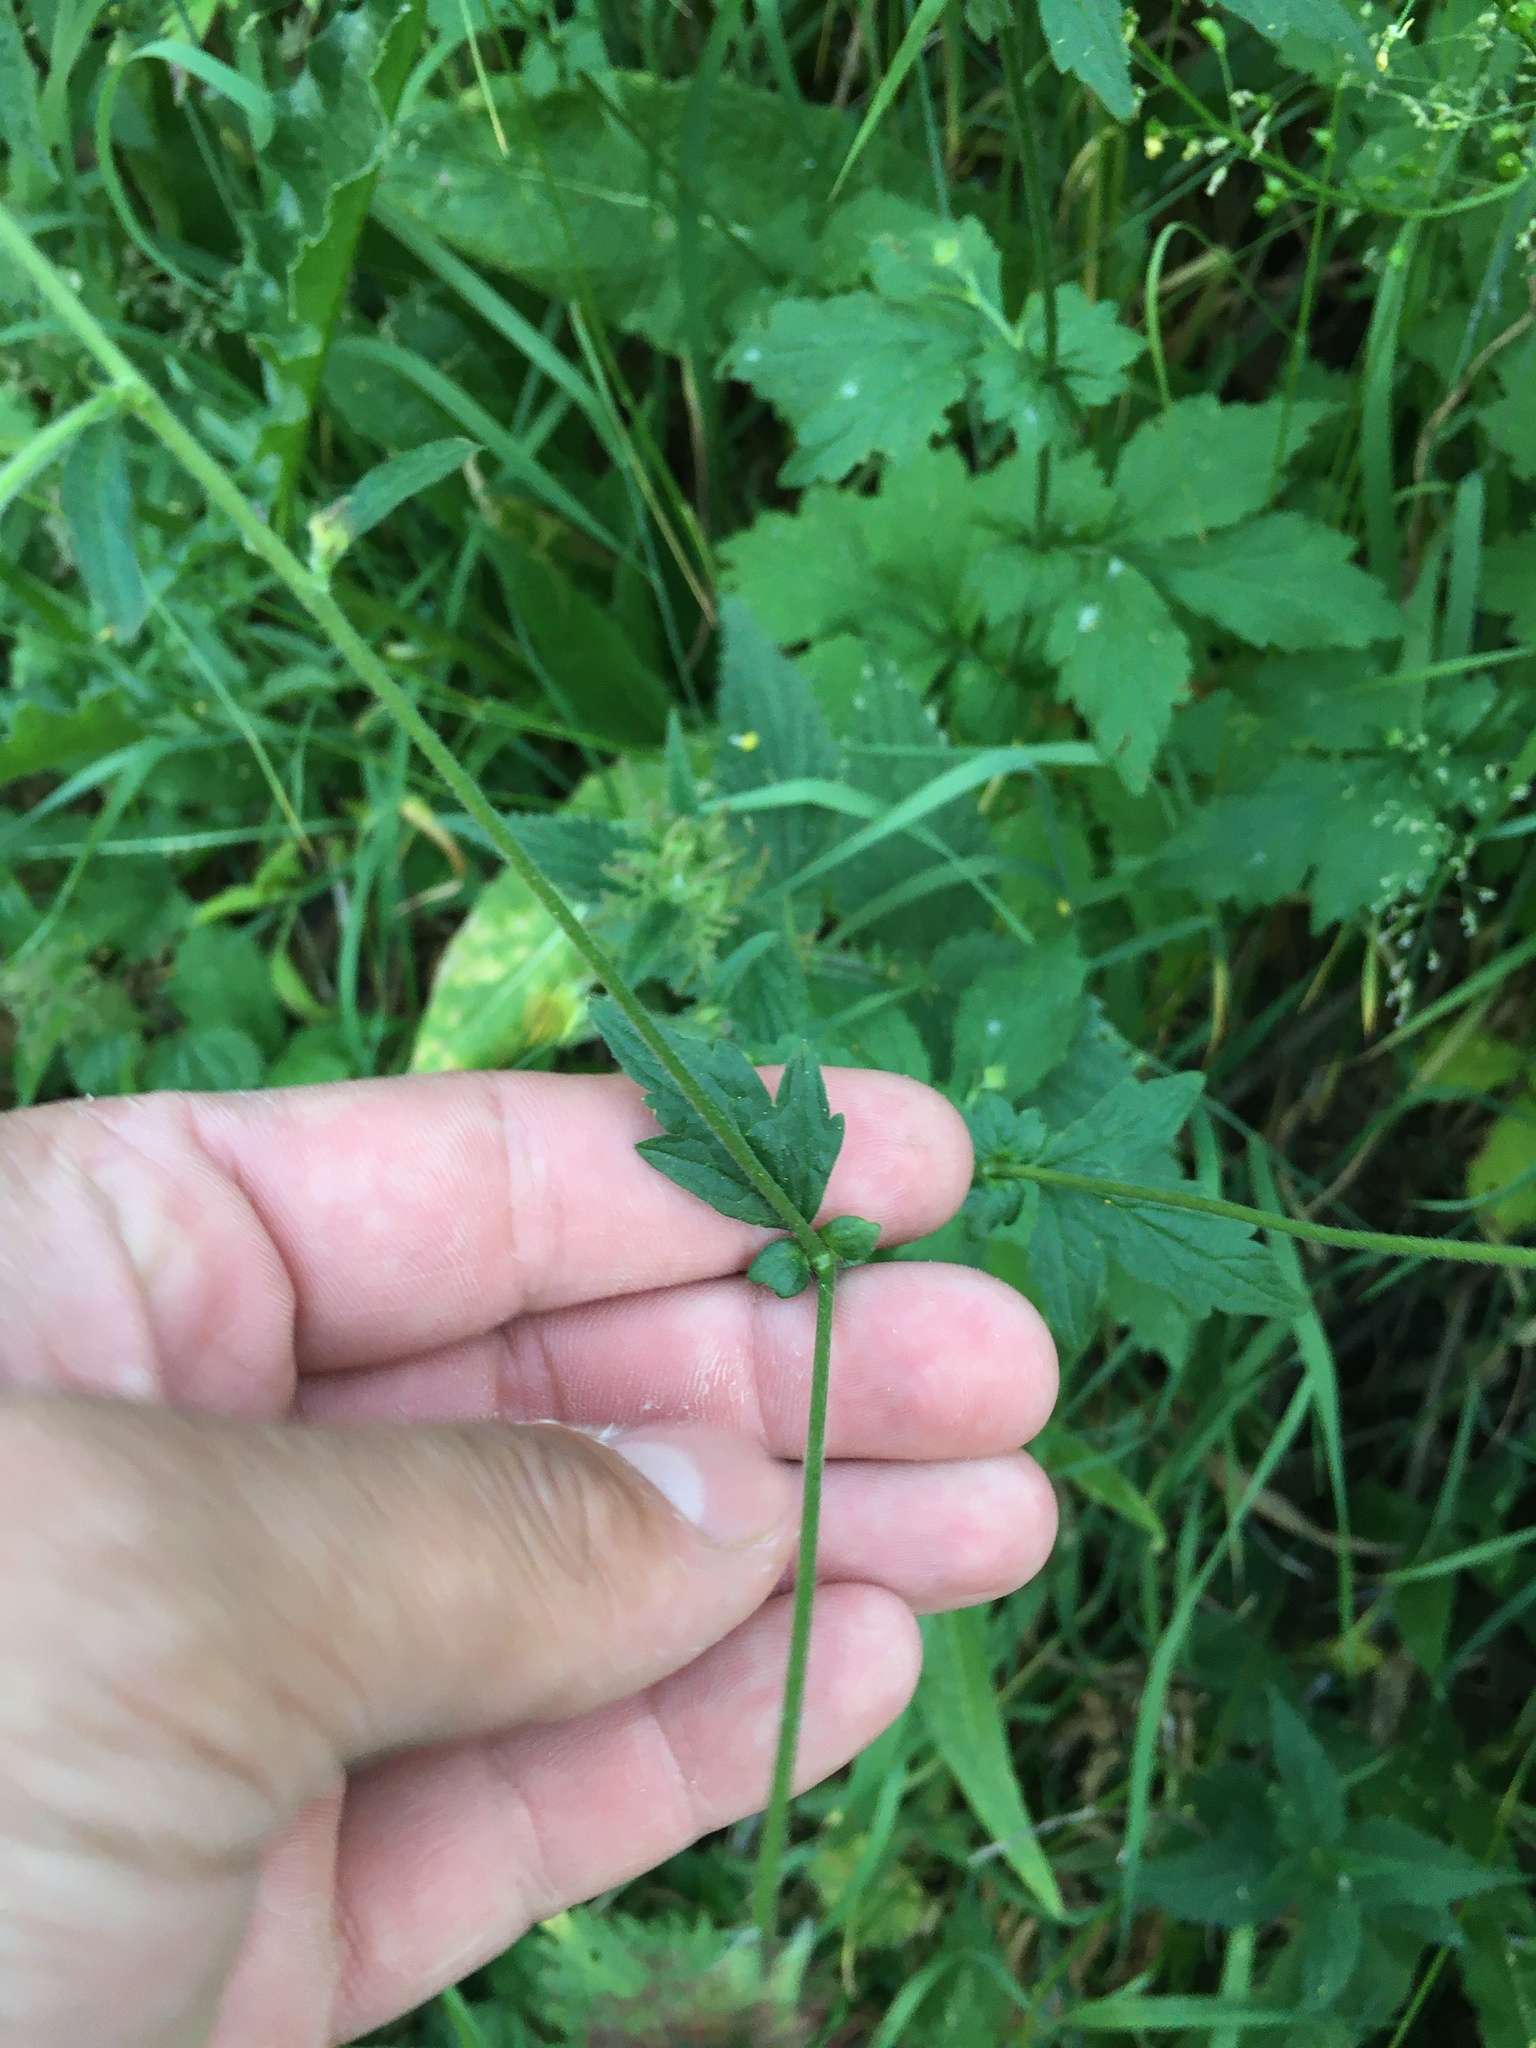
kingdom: Plantae
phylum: Tracheophyta
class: Magnoliopsida
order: Rosales
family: Rosaceae
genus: Geum
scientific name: Geum urbanum
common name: Wood avens
